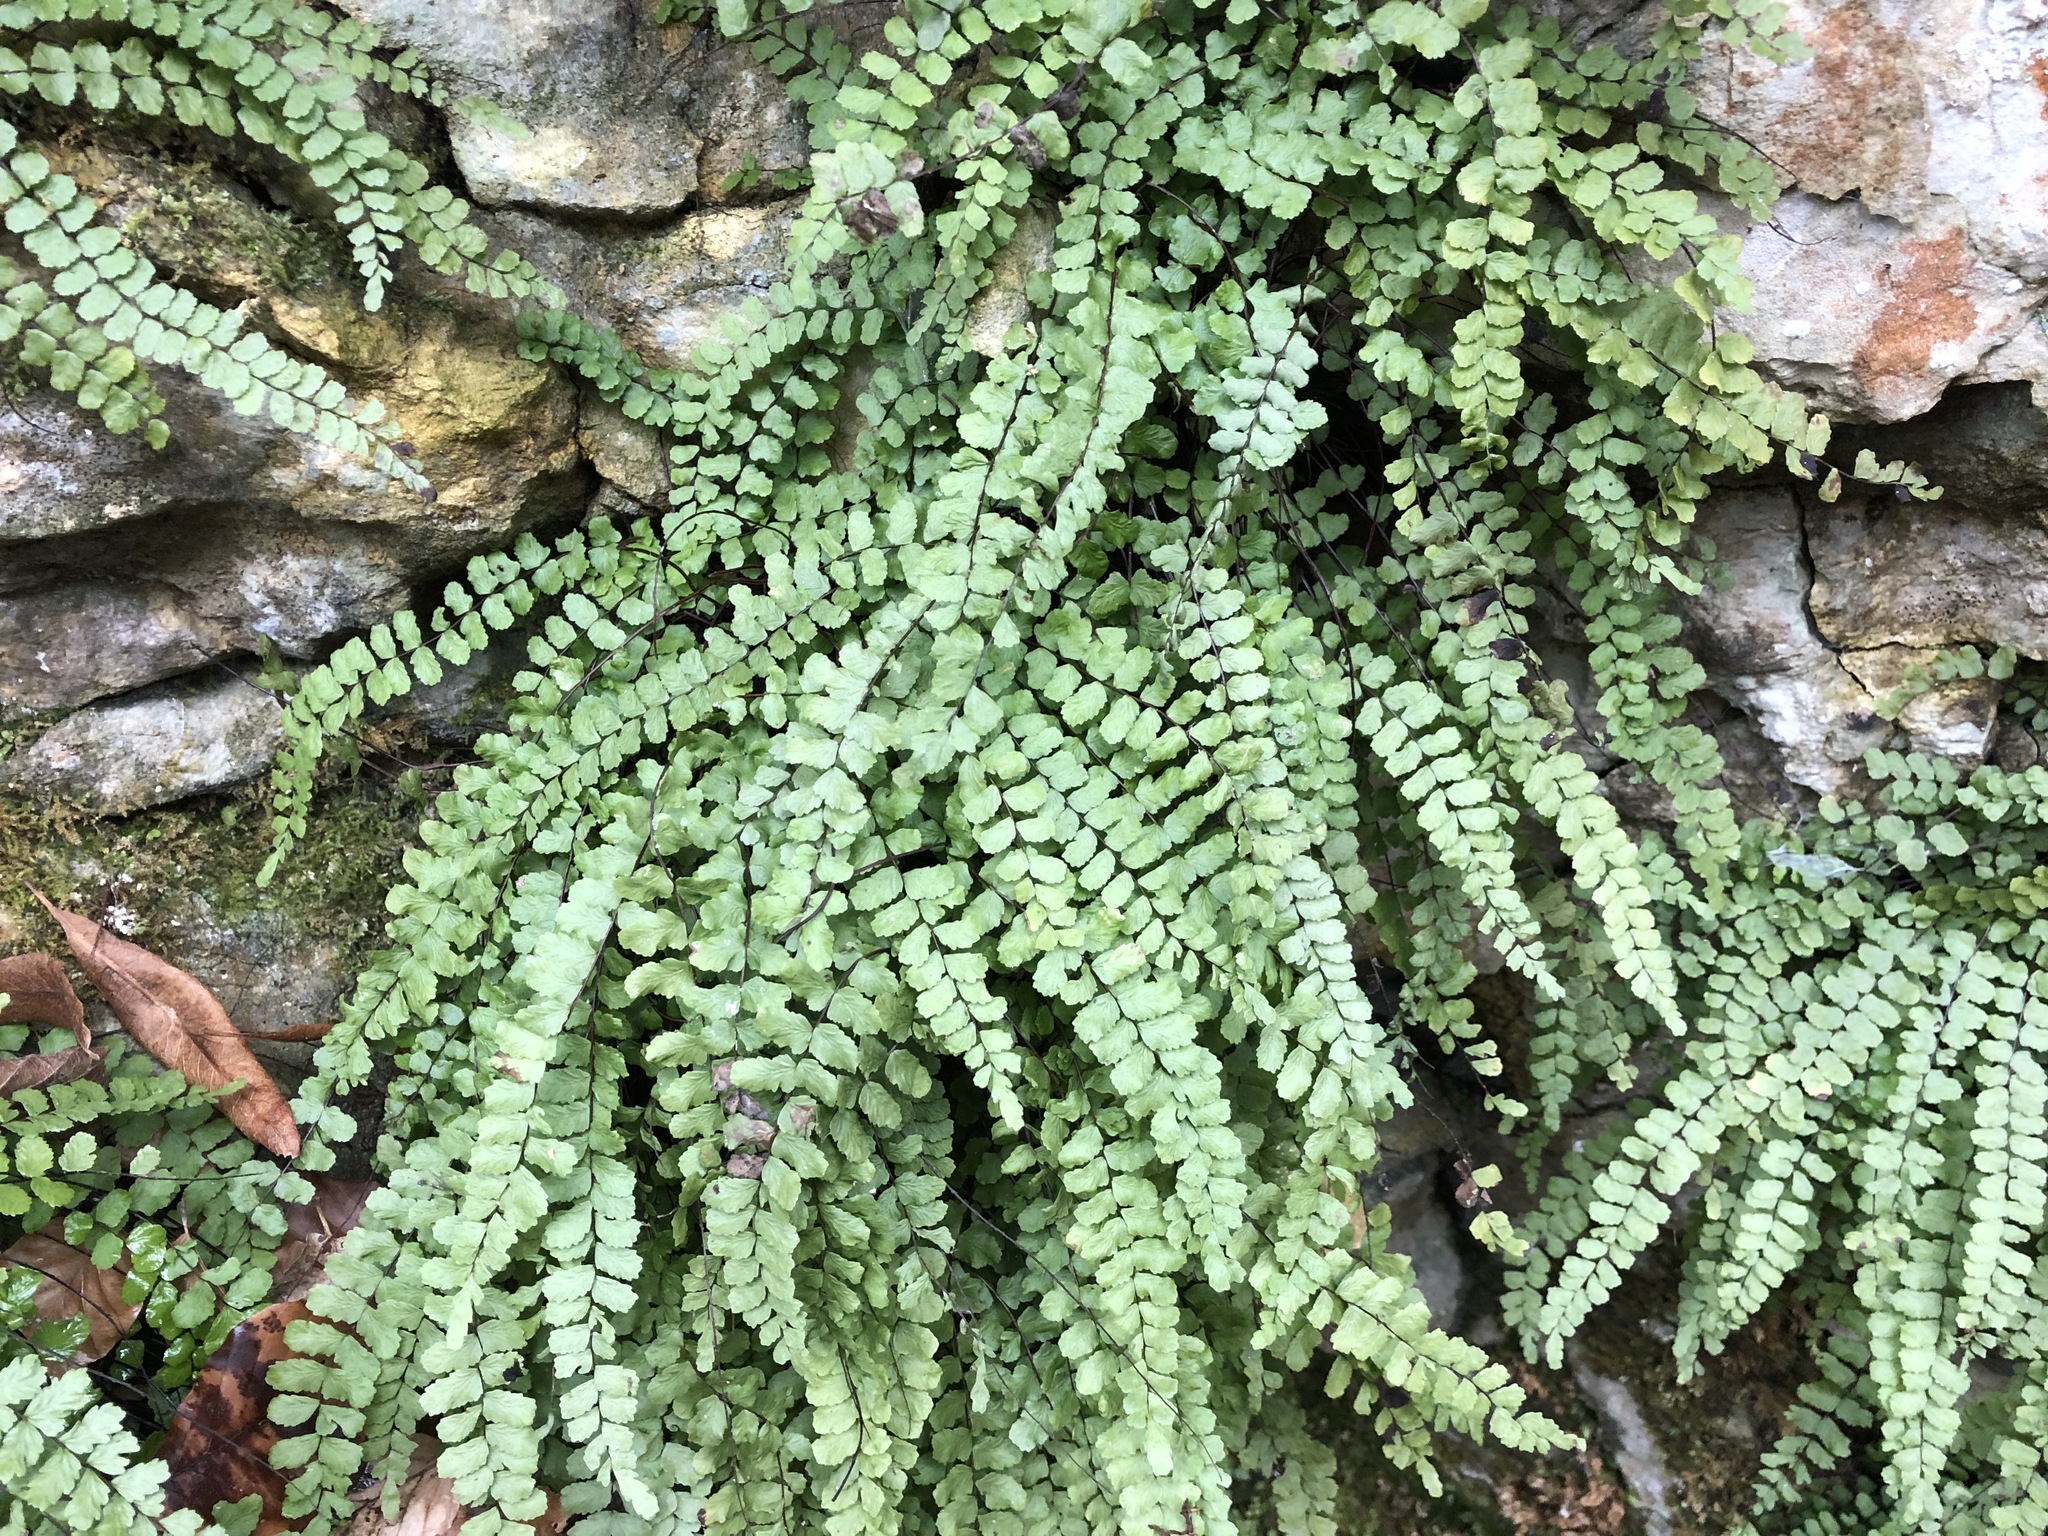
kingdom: Plantae
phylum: Tracheophyta
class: Polypodiopsida
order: Polypodiales
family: Aspleniaceae
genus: Asplenium
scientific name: Asplenium trichomanes
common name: Maidenhair spleenwort
